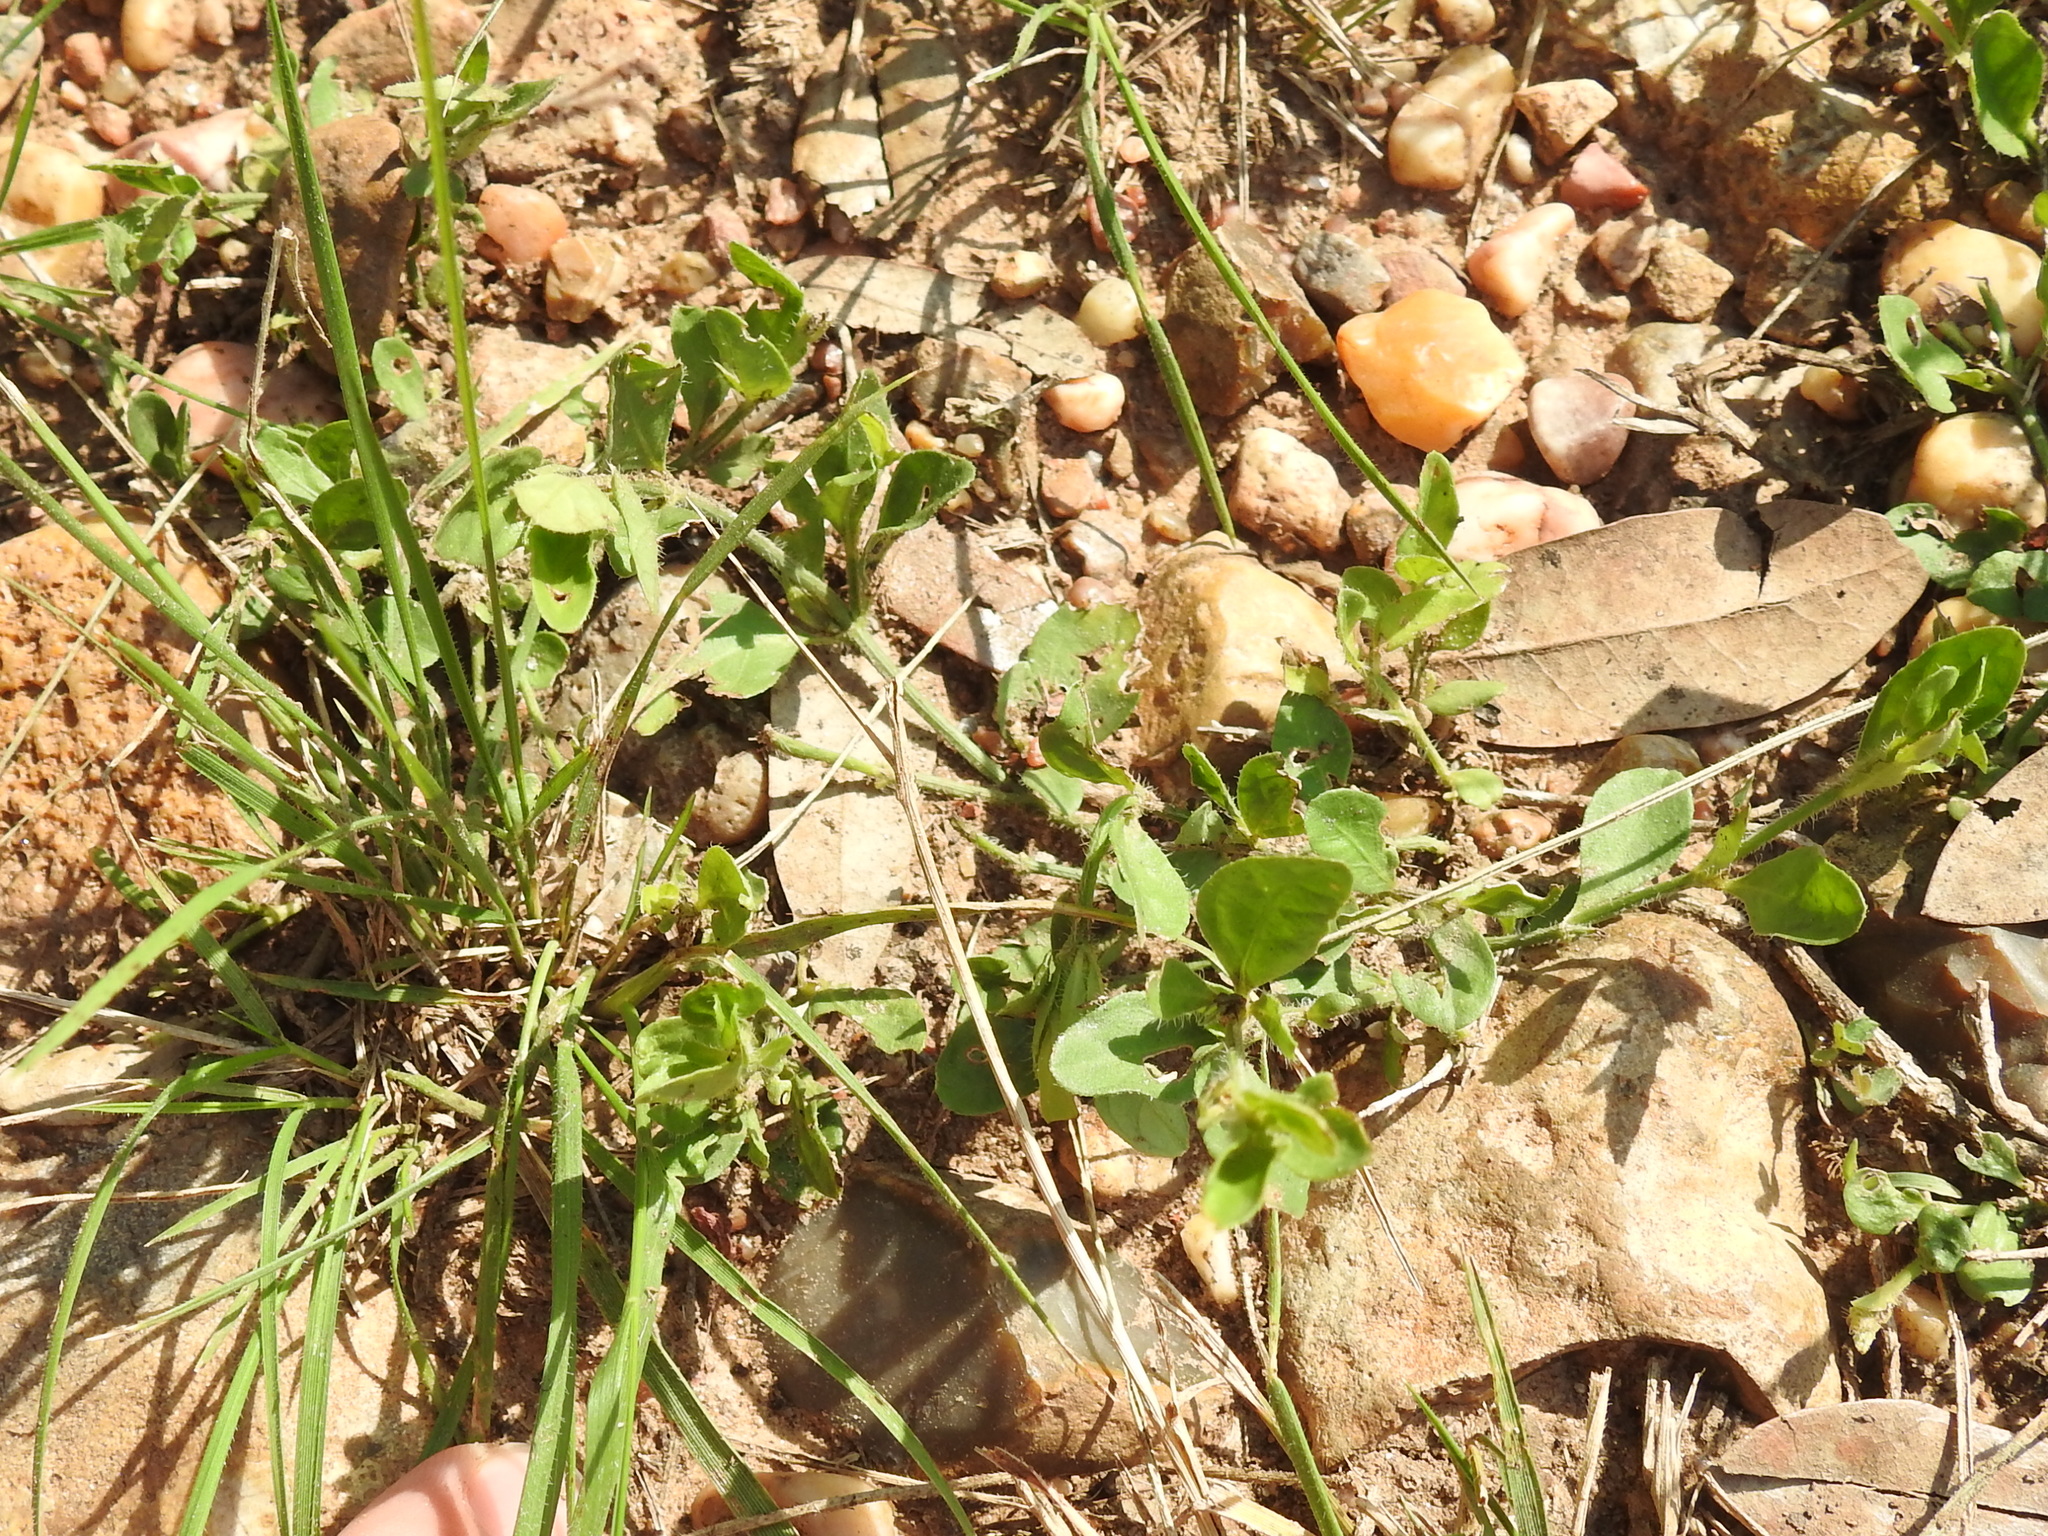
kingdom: Plantae
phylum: Tracheophyta
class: Magnoliopsida
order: Lamiales
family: Acanthaceae
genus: Justicia
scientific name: Justicia pilosella
